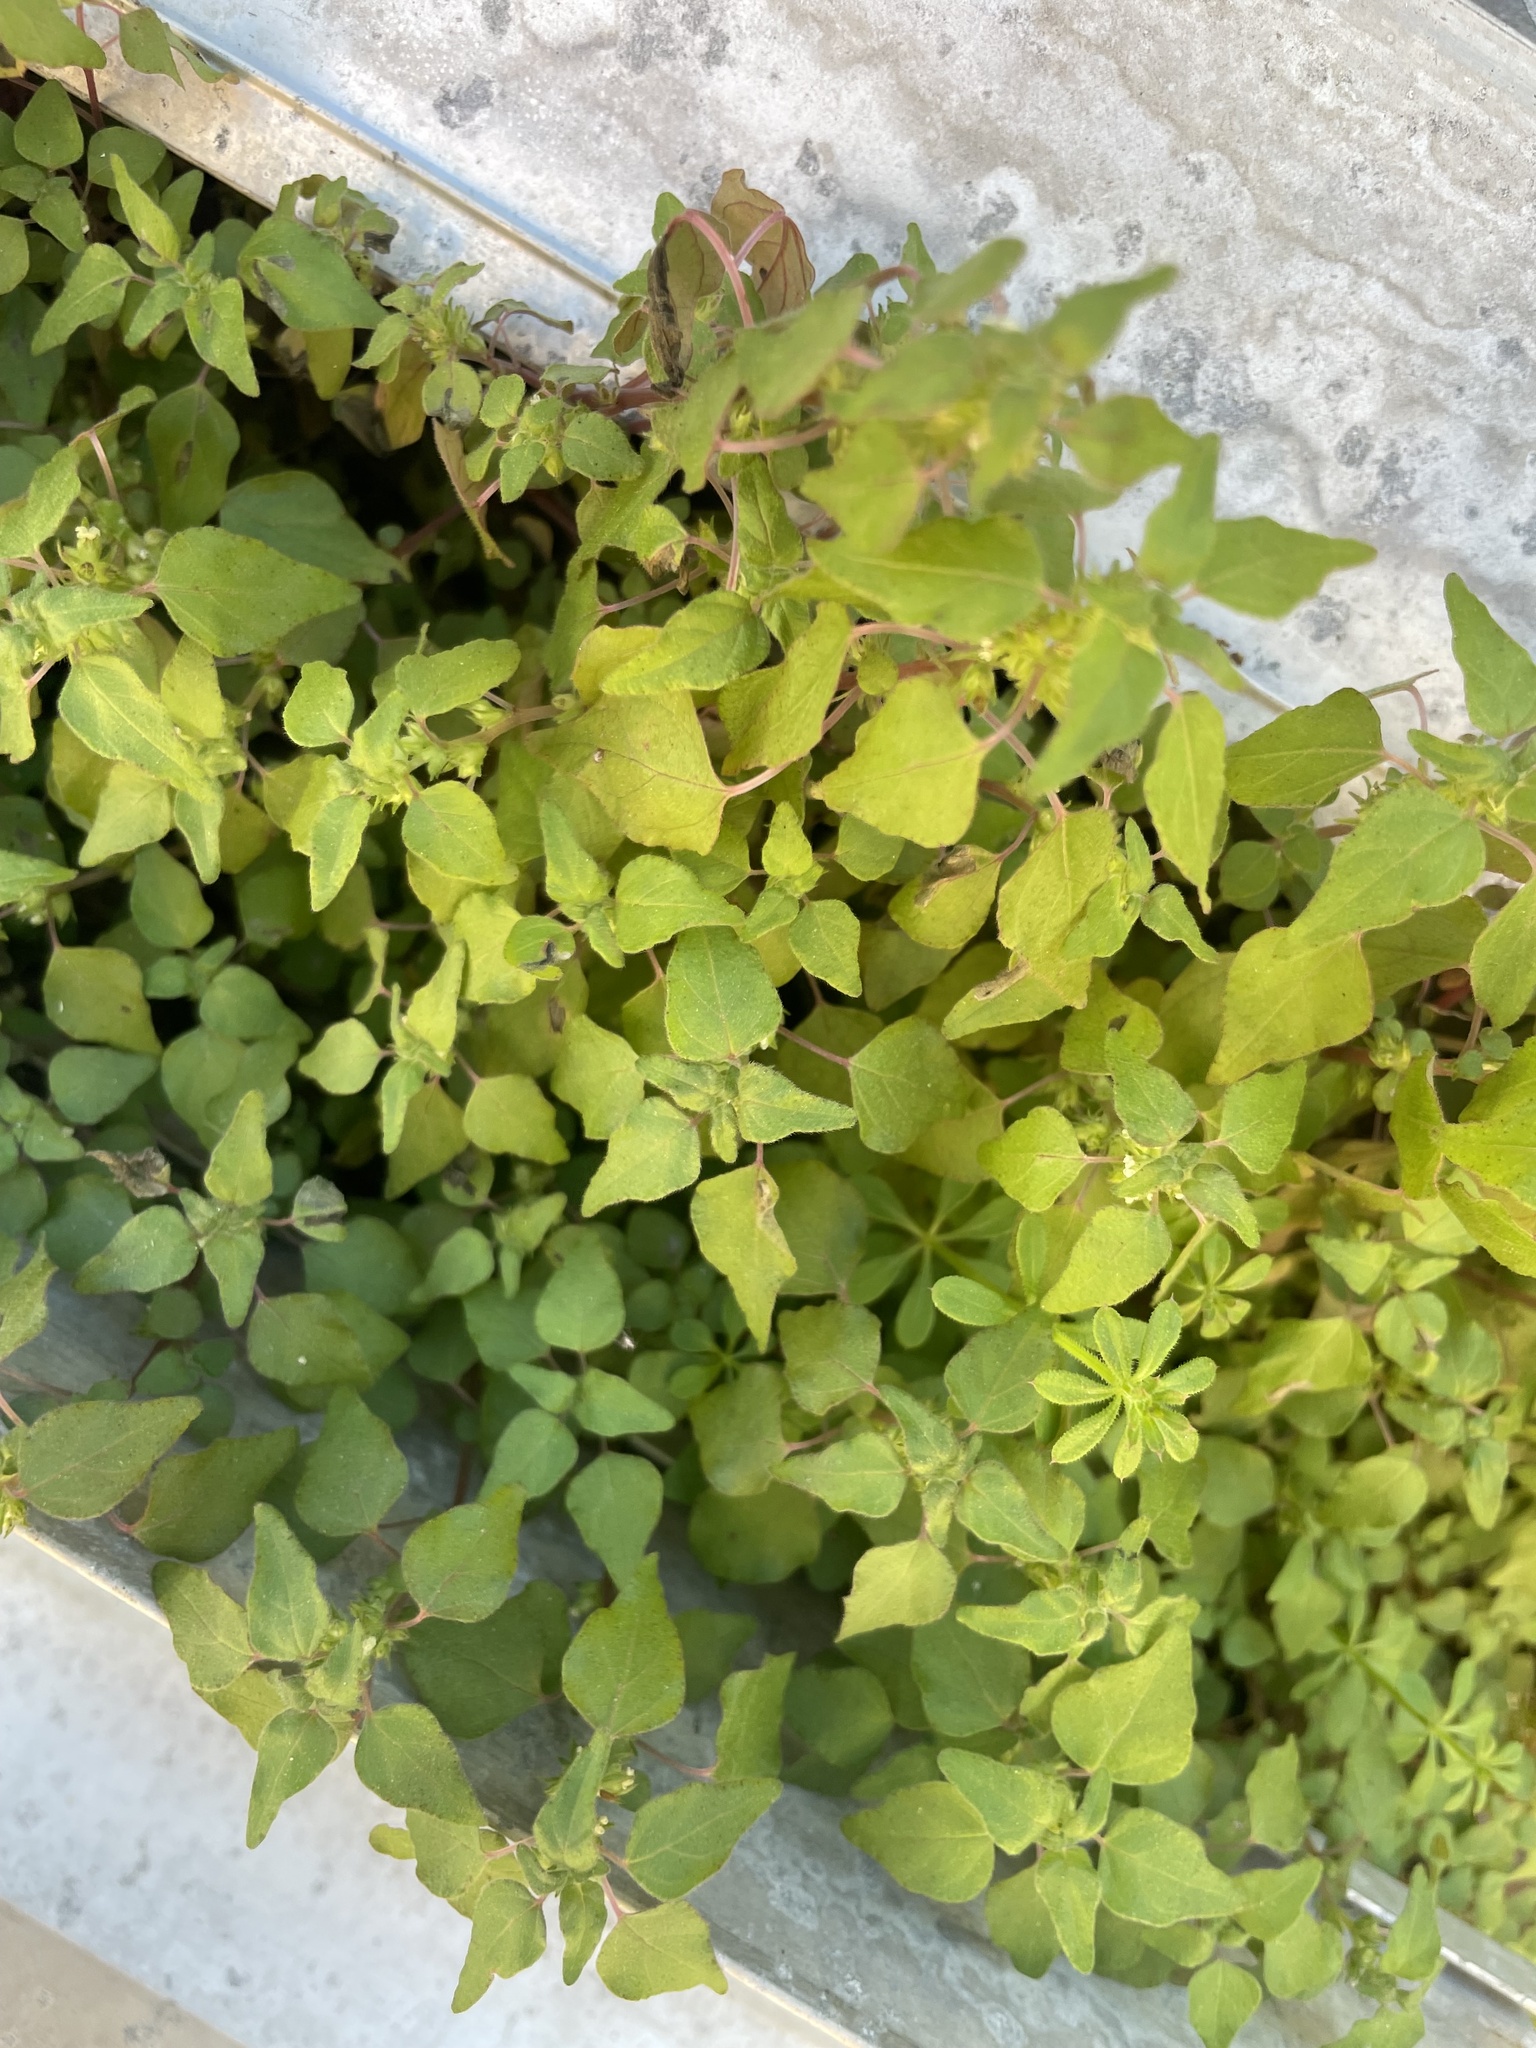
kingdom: Plantae
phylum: Tracheophyta
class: Magnoliopsida
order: Rosales
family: Urticaceae
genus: Parietaria
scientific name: Parietaria floridana
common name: Florida pellitory
